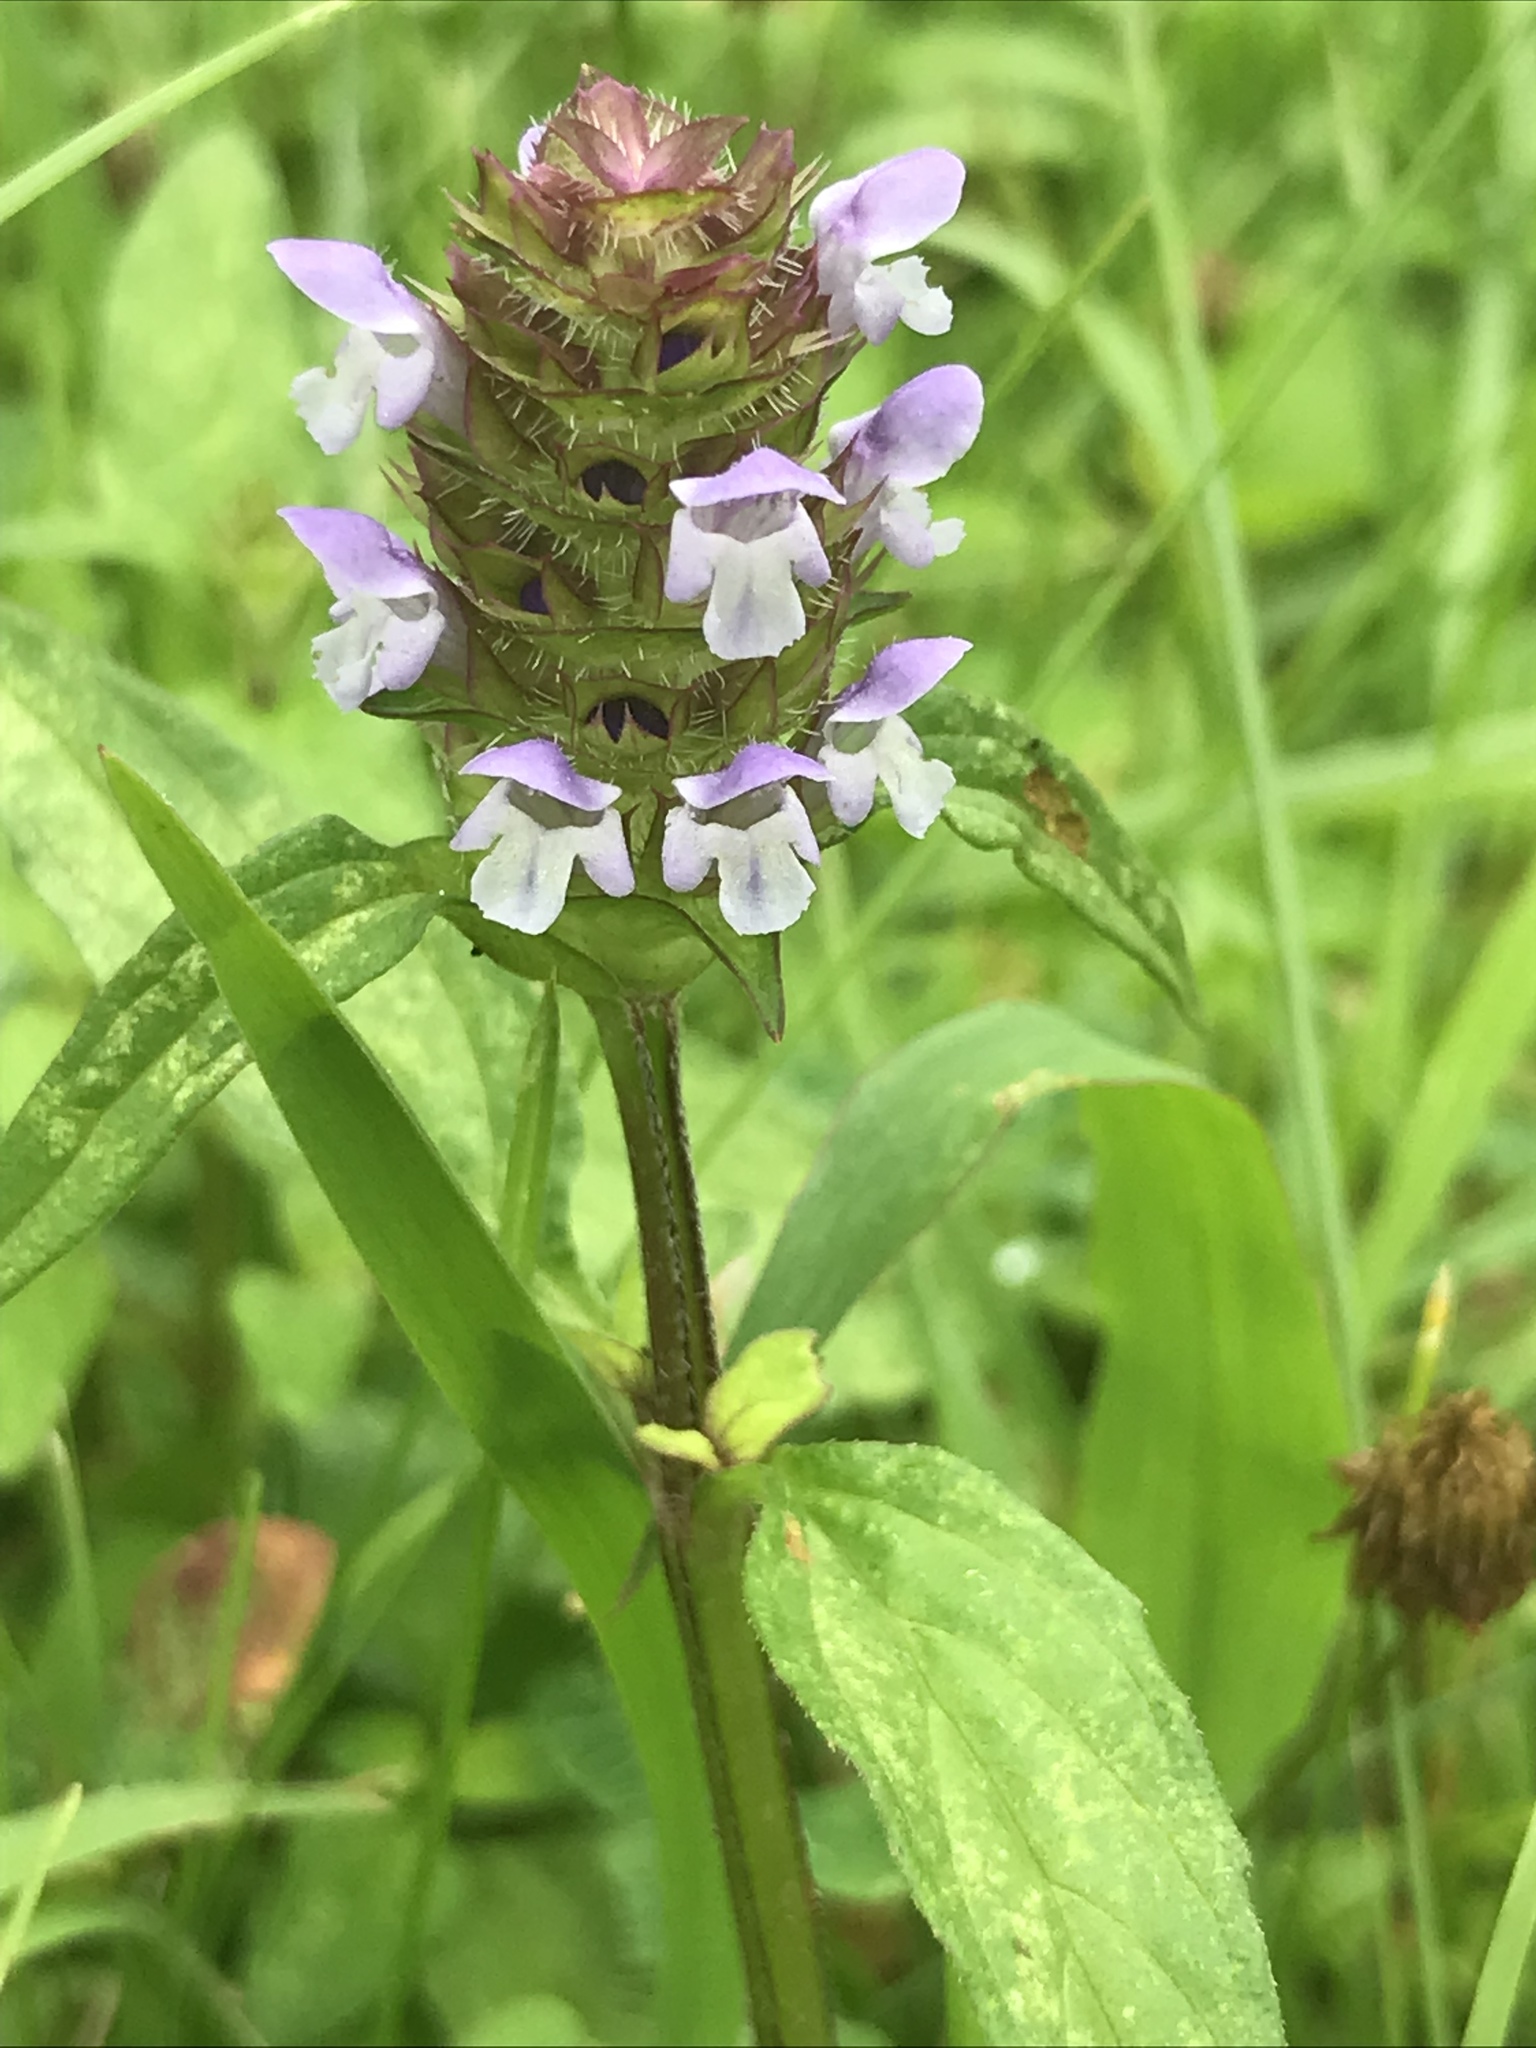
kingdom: Plantae
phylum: Tracheophyta
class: Magnoliopsida
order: Lamiales
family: Lamiaceae
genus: Prunella
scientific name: Prunella vulgaris
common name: Heal-all
